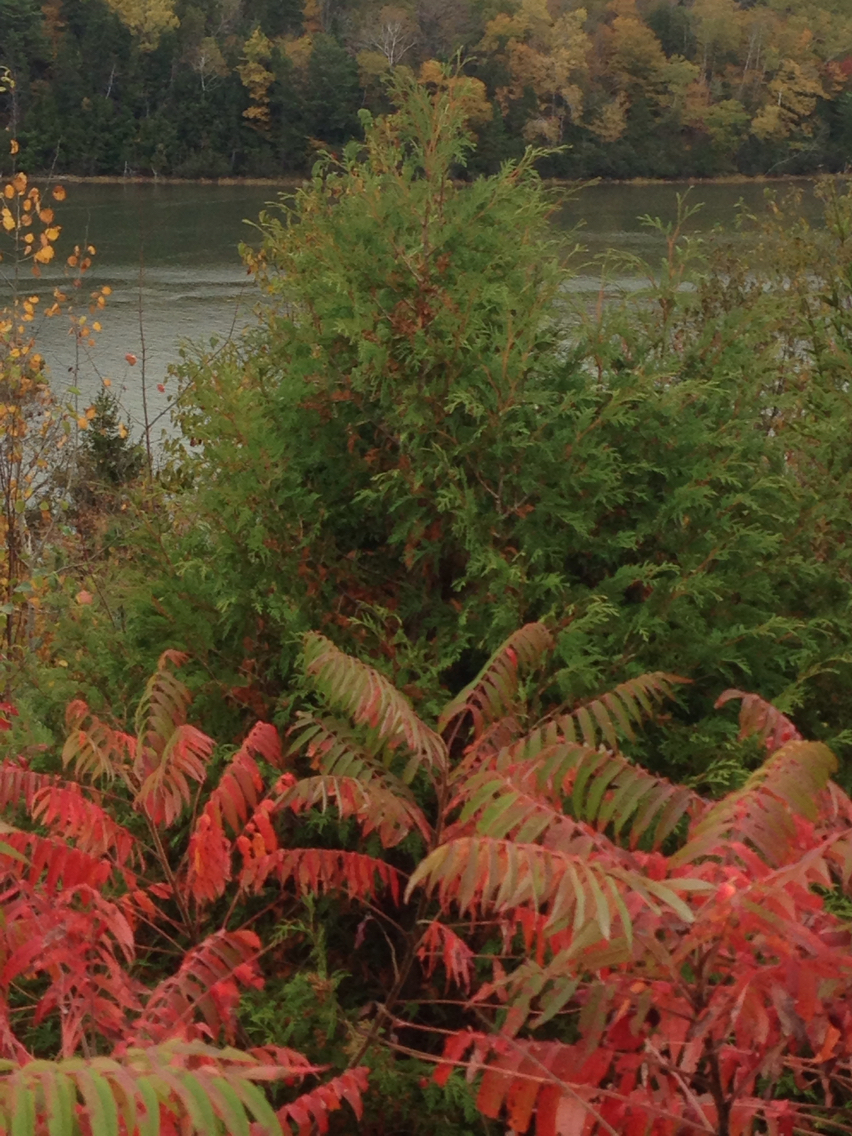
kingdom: Plantae
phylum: Tracheophyta
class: Pinopsida
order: Pinales
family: Cupressaceae
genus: Thuja
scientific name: Thuja occidentalis
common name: Northern white-cedar
